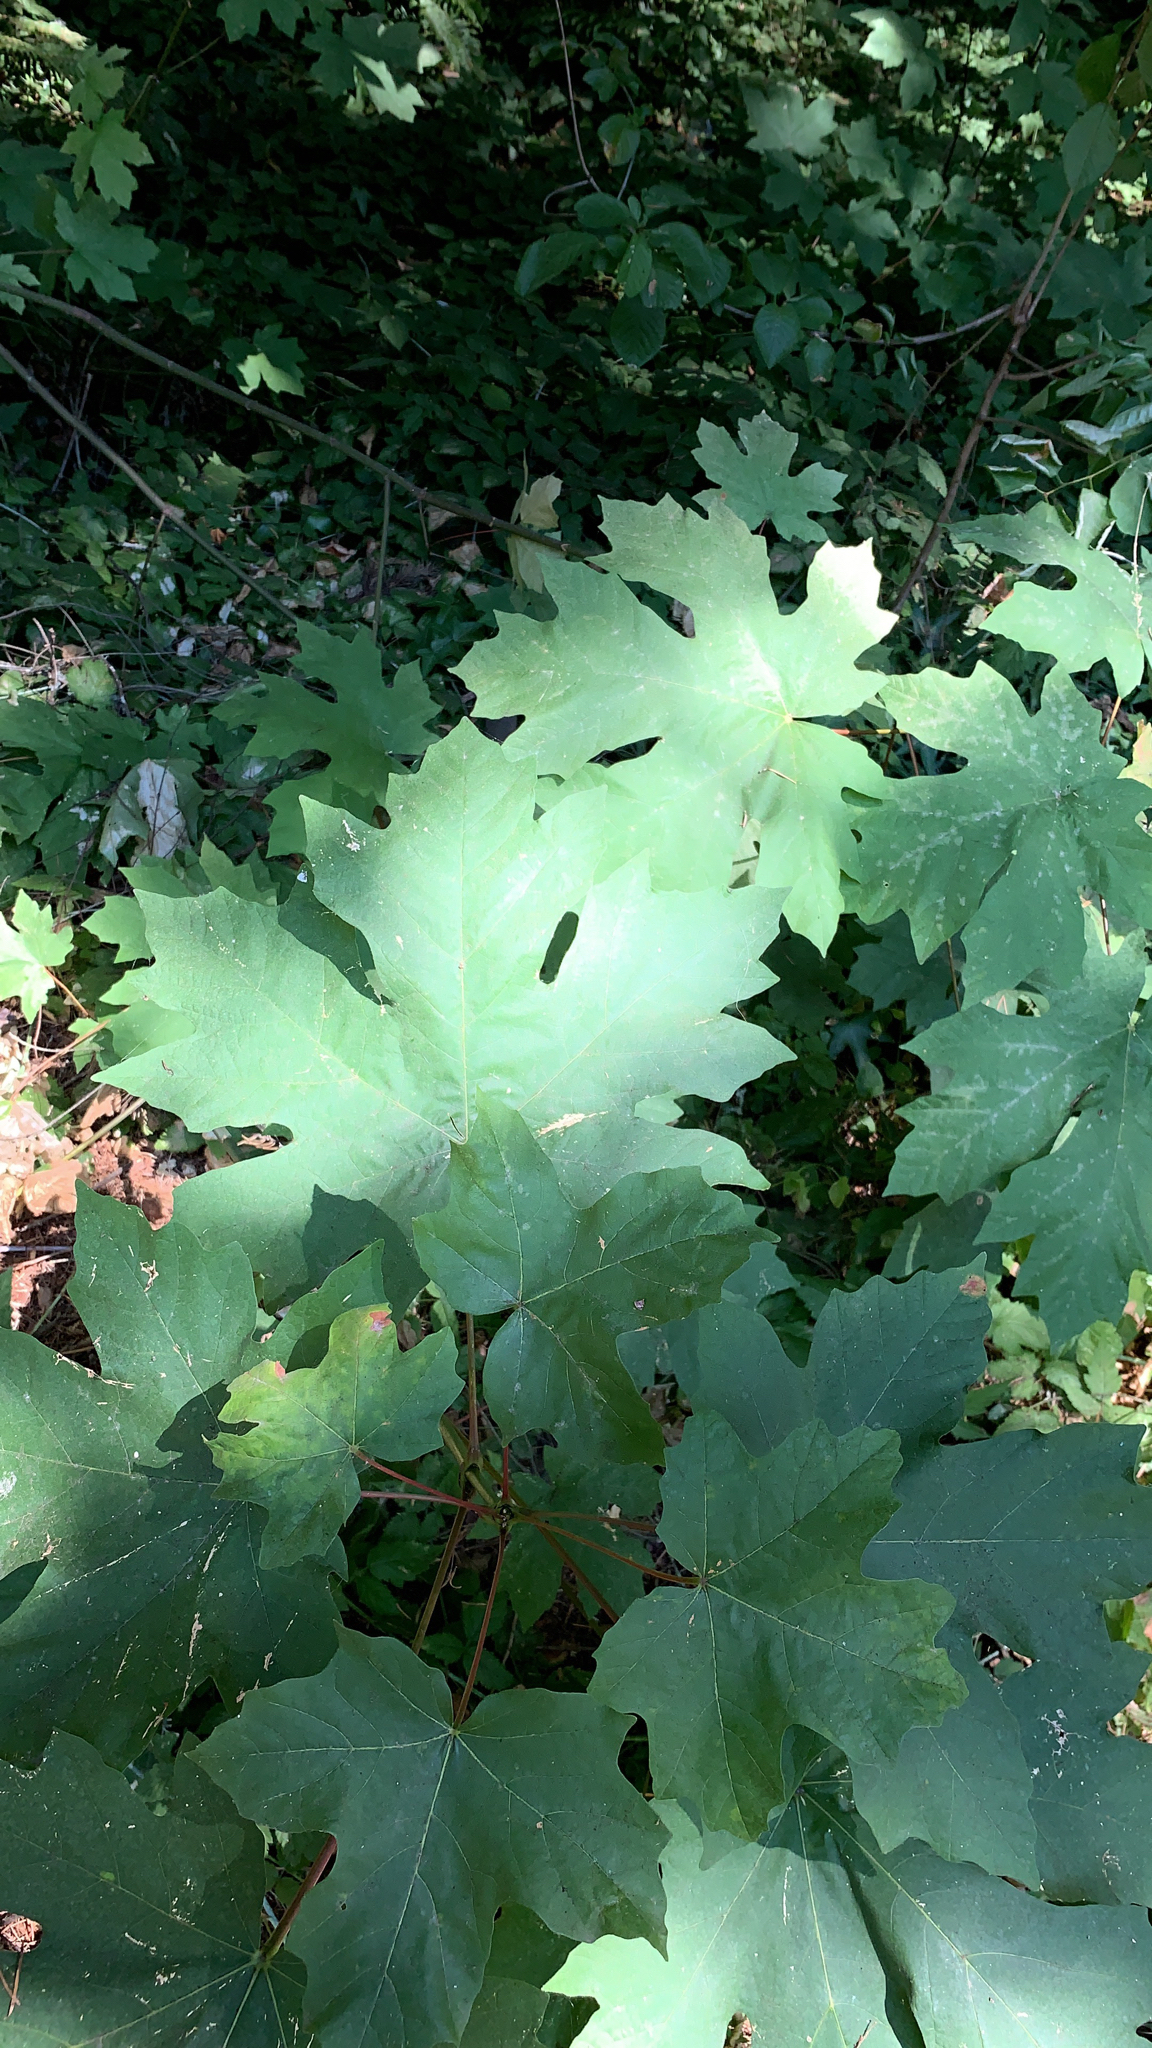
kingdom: Plantae
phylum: Tracheophyta
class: Magnoliopsida
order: Sapindales
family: Sapindaceae
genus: Acer
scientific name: Acer macrophyllum
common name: Oregon maple
